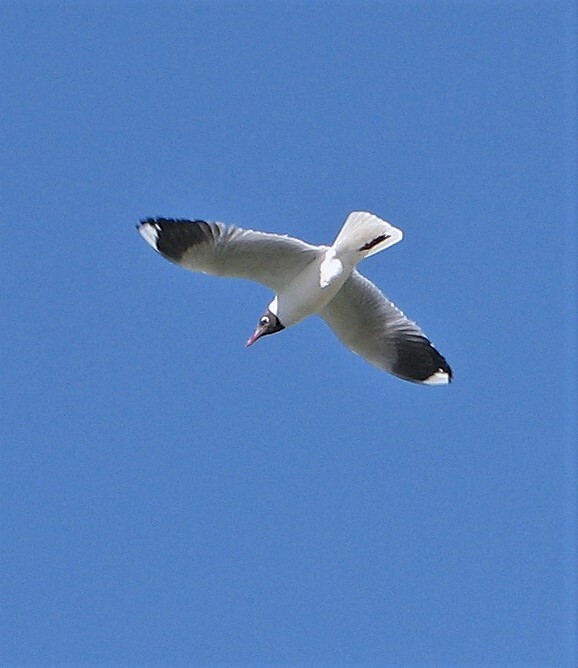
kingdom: Animalia
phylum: Chordata
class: Aves
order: Charadriiformes
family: Laridae
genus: Chroicocephalus
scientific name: Chroicocephalus maculipennis
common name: Brown-hooded gull
